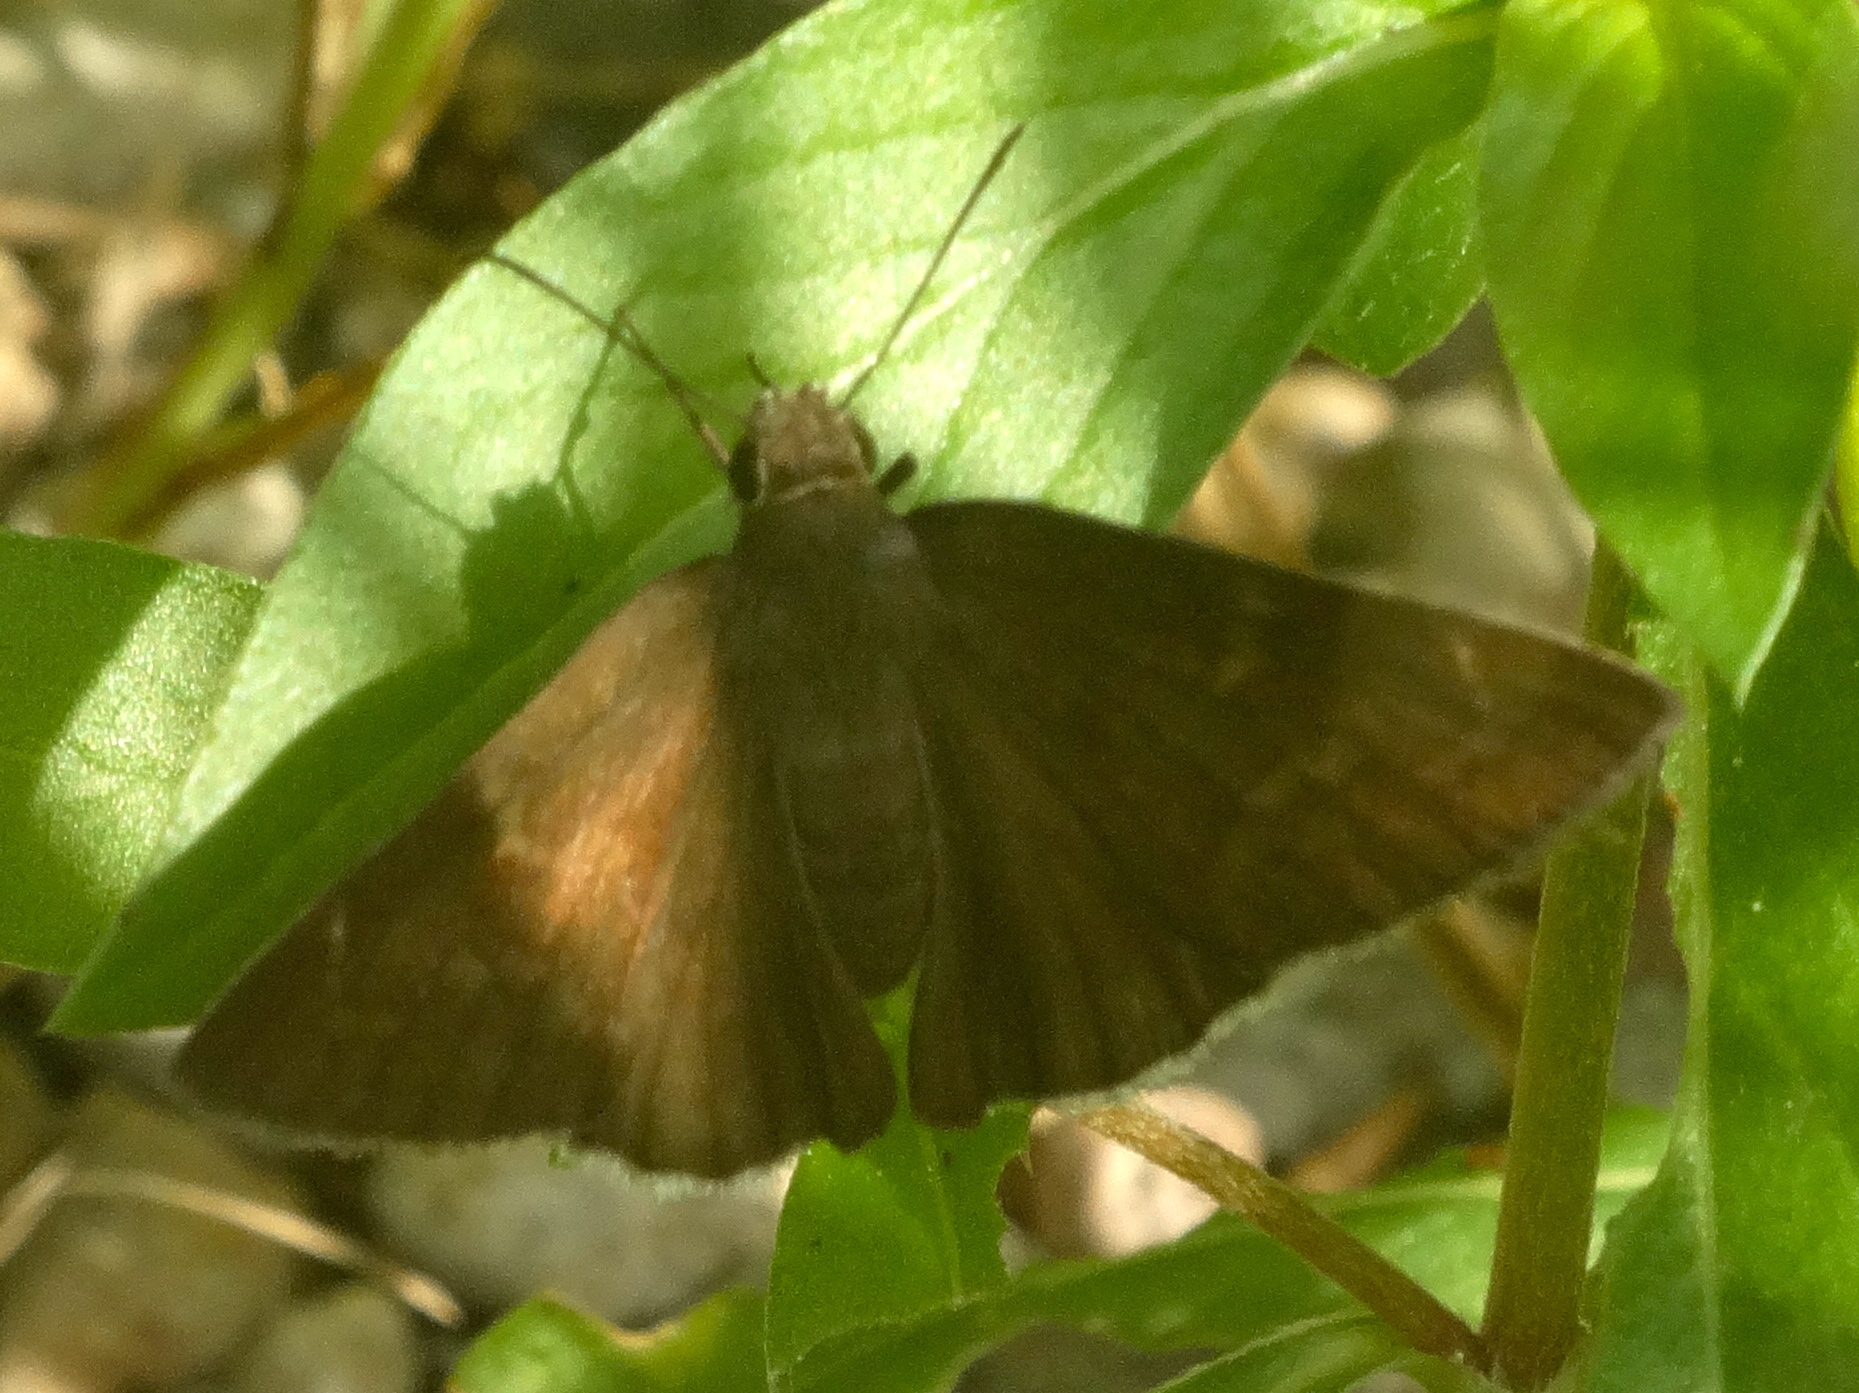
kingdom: Animalia
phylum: Arthropoda
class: Insecta
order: Lepidoptera
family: Hesperiidae
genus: Achalarus
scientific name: Achalarus Murgaria jalapus
